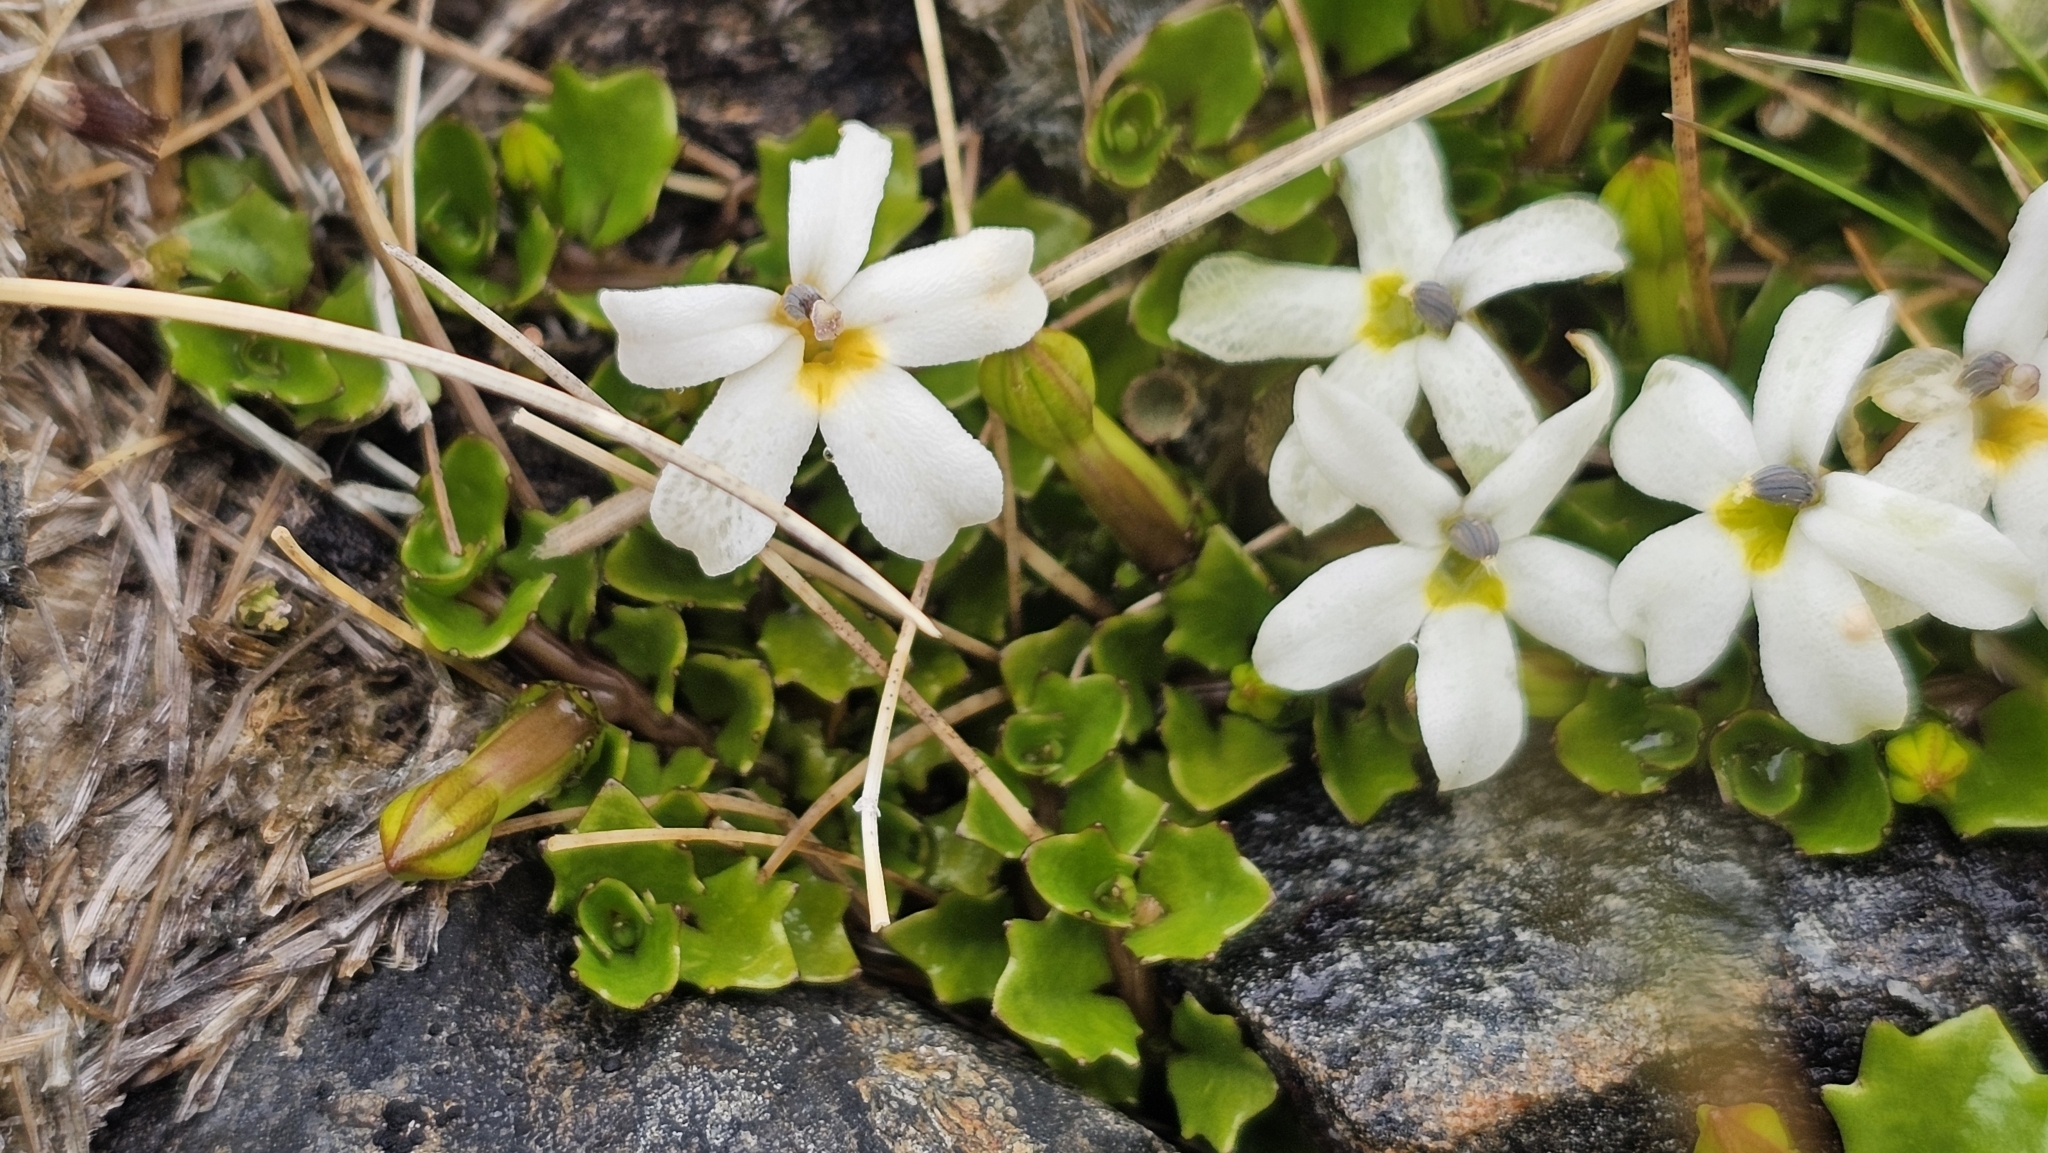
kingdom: Plantae
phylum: Tracheophyta
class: Magnoliopsida
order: Asterales
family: Campanulaceae
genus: Lobelia
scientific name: Lobelia macrodon
